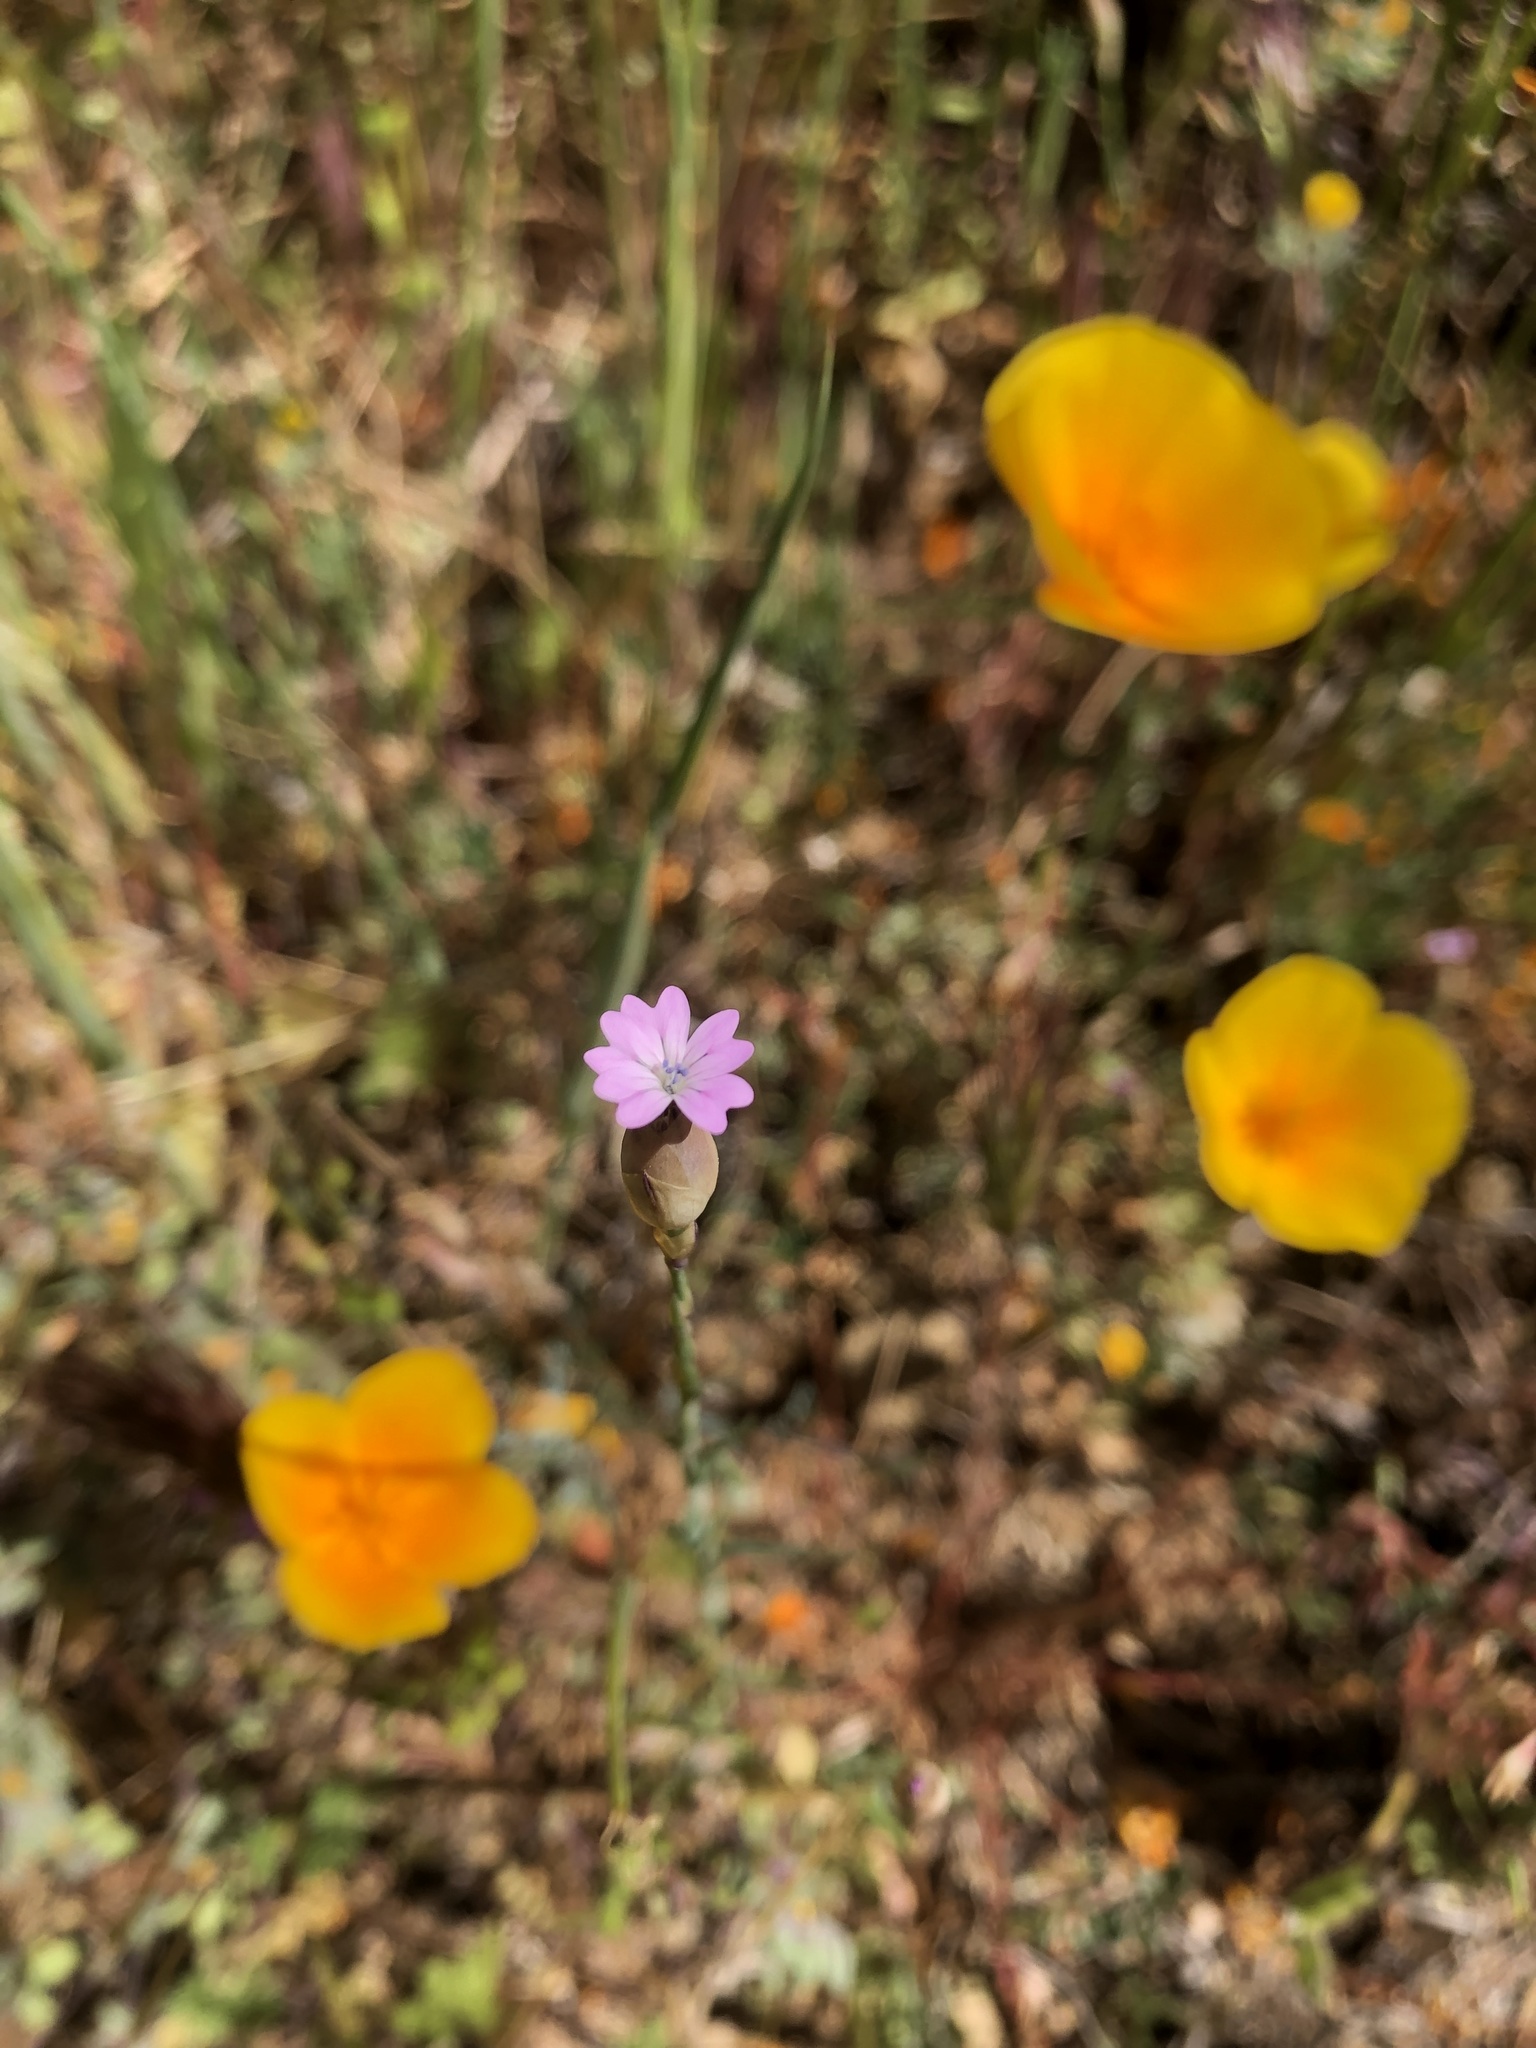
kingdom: Plantae
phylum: Tracheophyta
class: Magnoliopsida
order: Caryophyllales
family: Caryophyllaceae
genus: Petrorhagia
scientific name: Petrorhagia nanteuilii
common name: Proliferous pink
